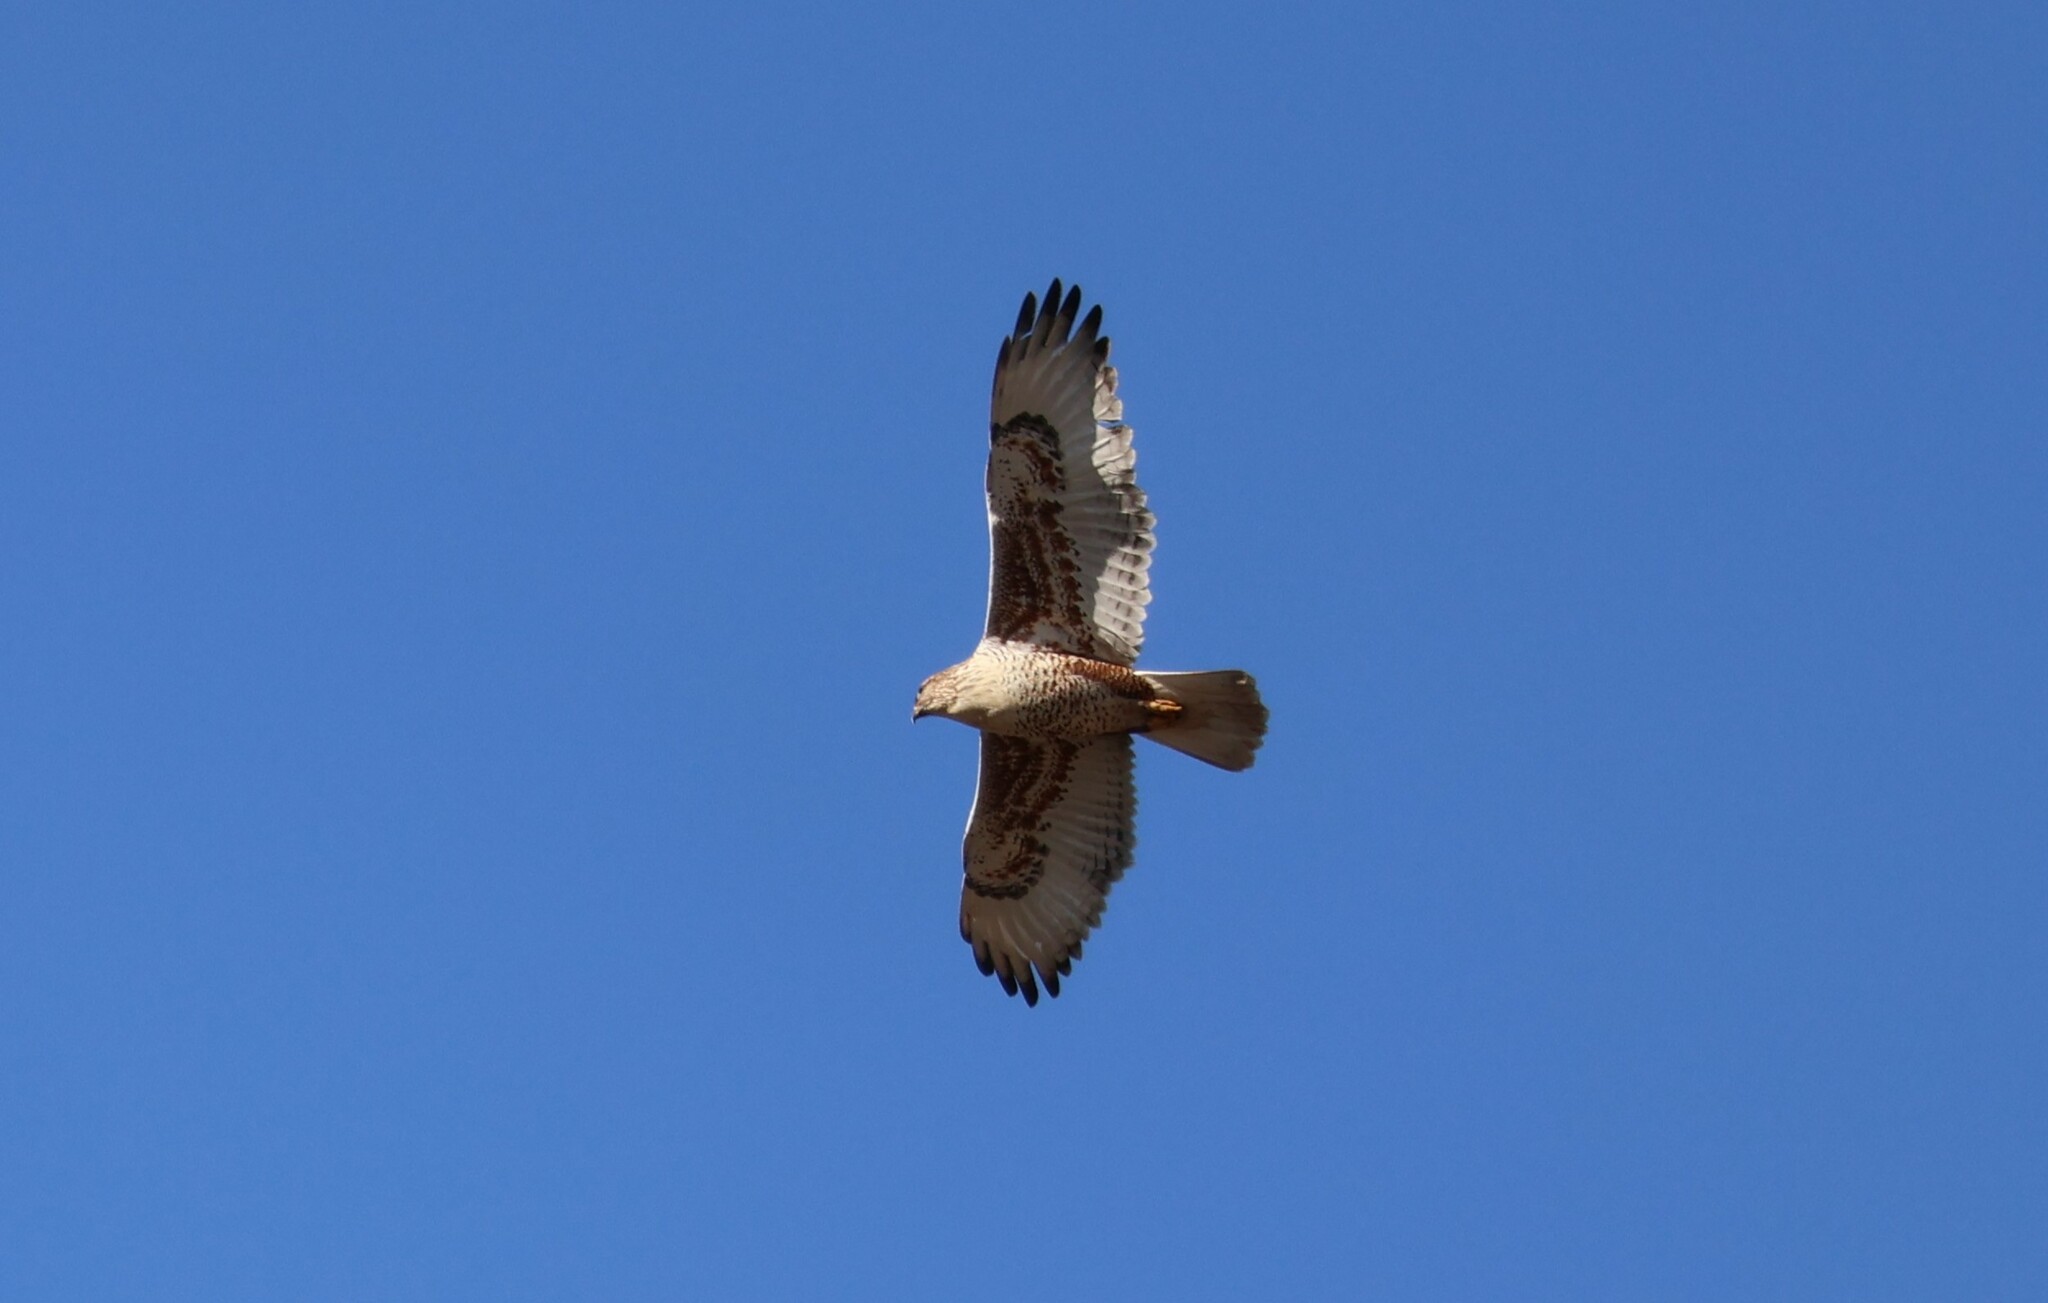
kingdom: Animalia
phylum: Chordata
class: Aves
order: Accipitriformes
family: Accipitridae
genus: Buteo
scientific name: Buteo regalis
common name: Ferruginous hawk
